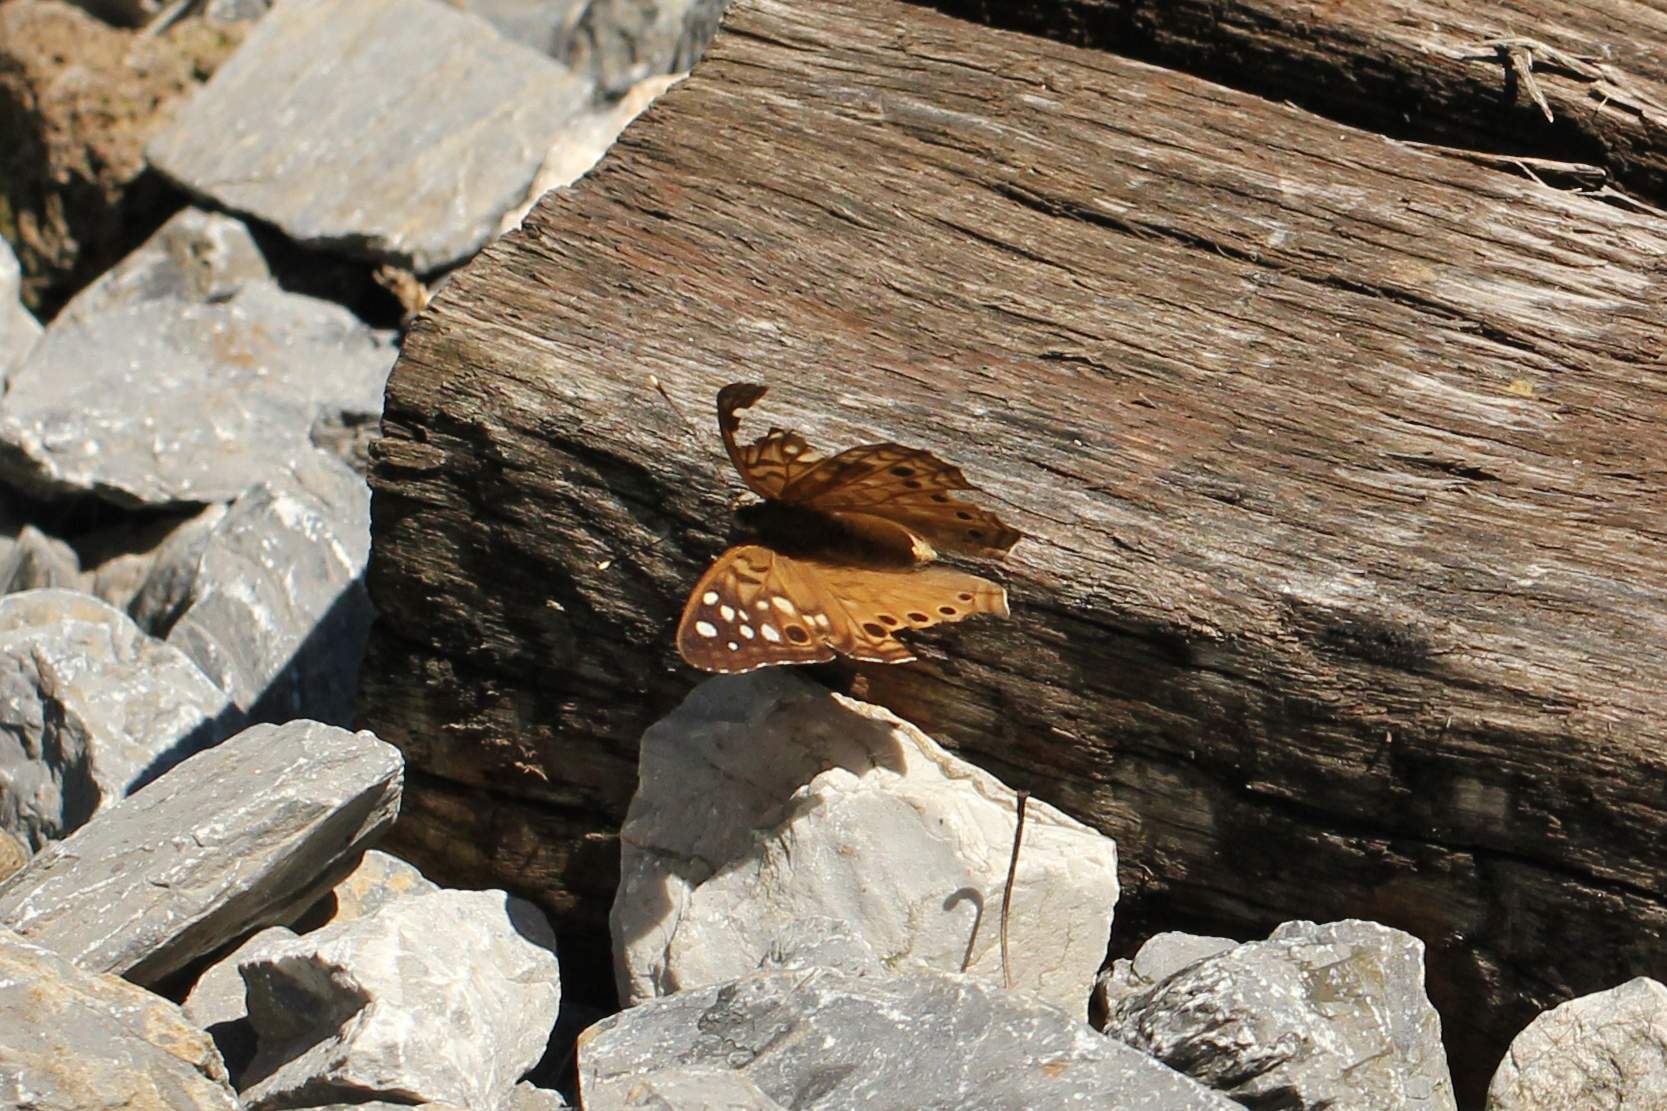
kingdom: Animalia
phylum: Arthropoda
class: Insecta
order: Lepidoptera
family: Nymphalidae
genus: Asterocampa
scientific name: Asterocampa celtis
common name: Hackberry emperor
